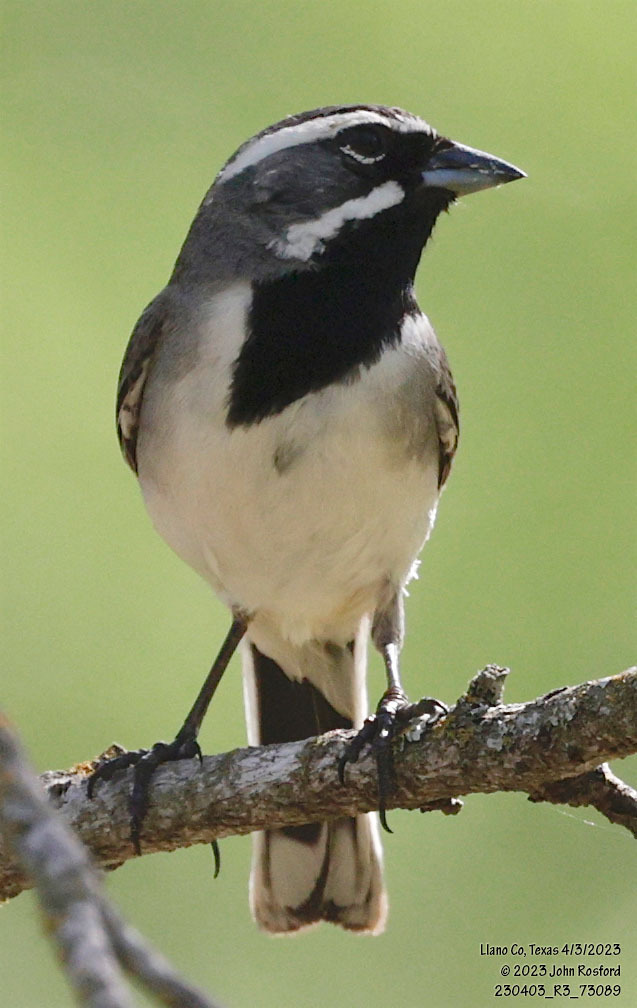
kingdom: Animalia
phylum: Chordata
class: Aves
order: Passeriformes
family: Passerellidae
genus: Amphispiza
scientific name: Amphispiza bilineata
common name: Black-throated sparrow
